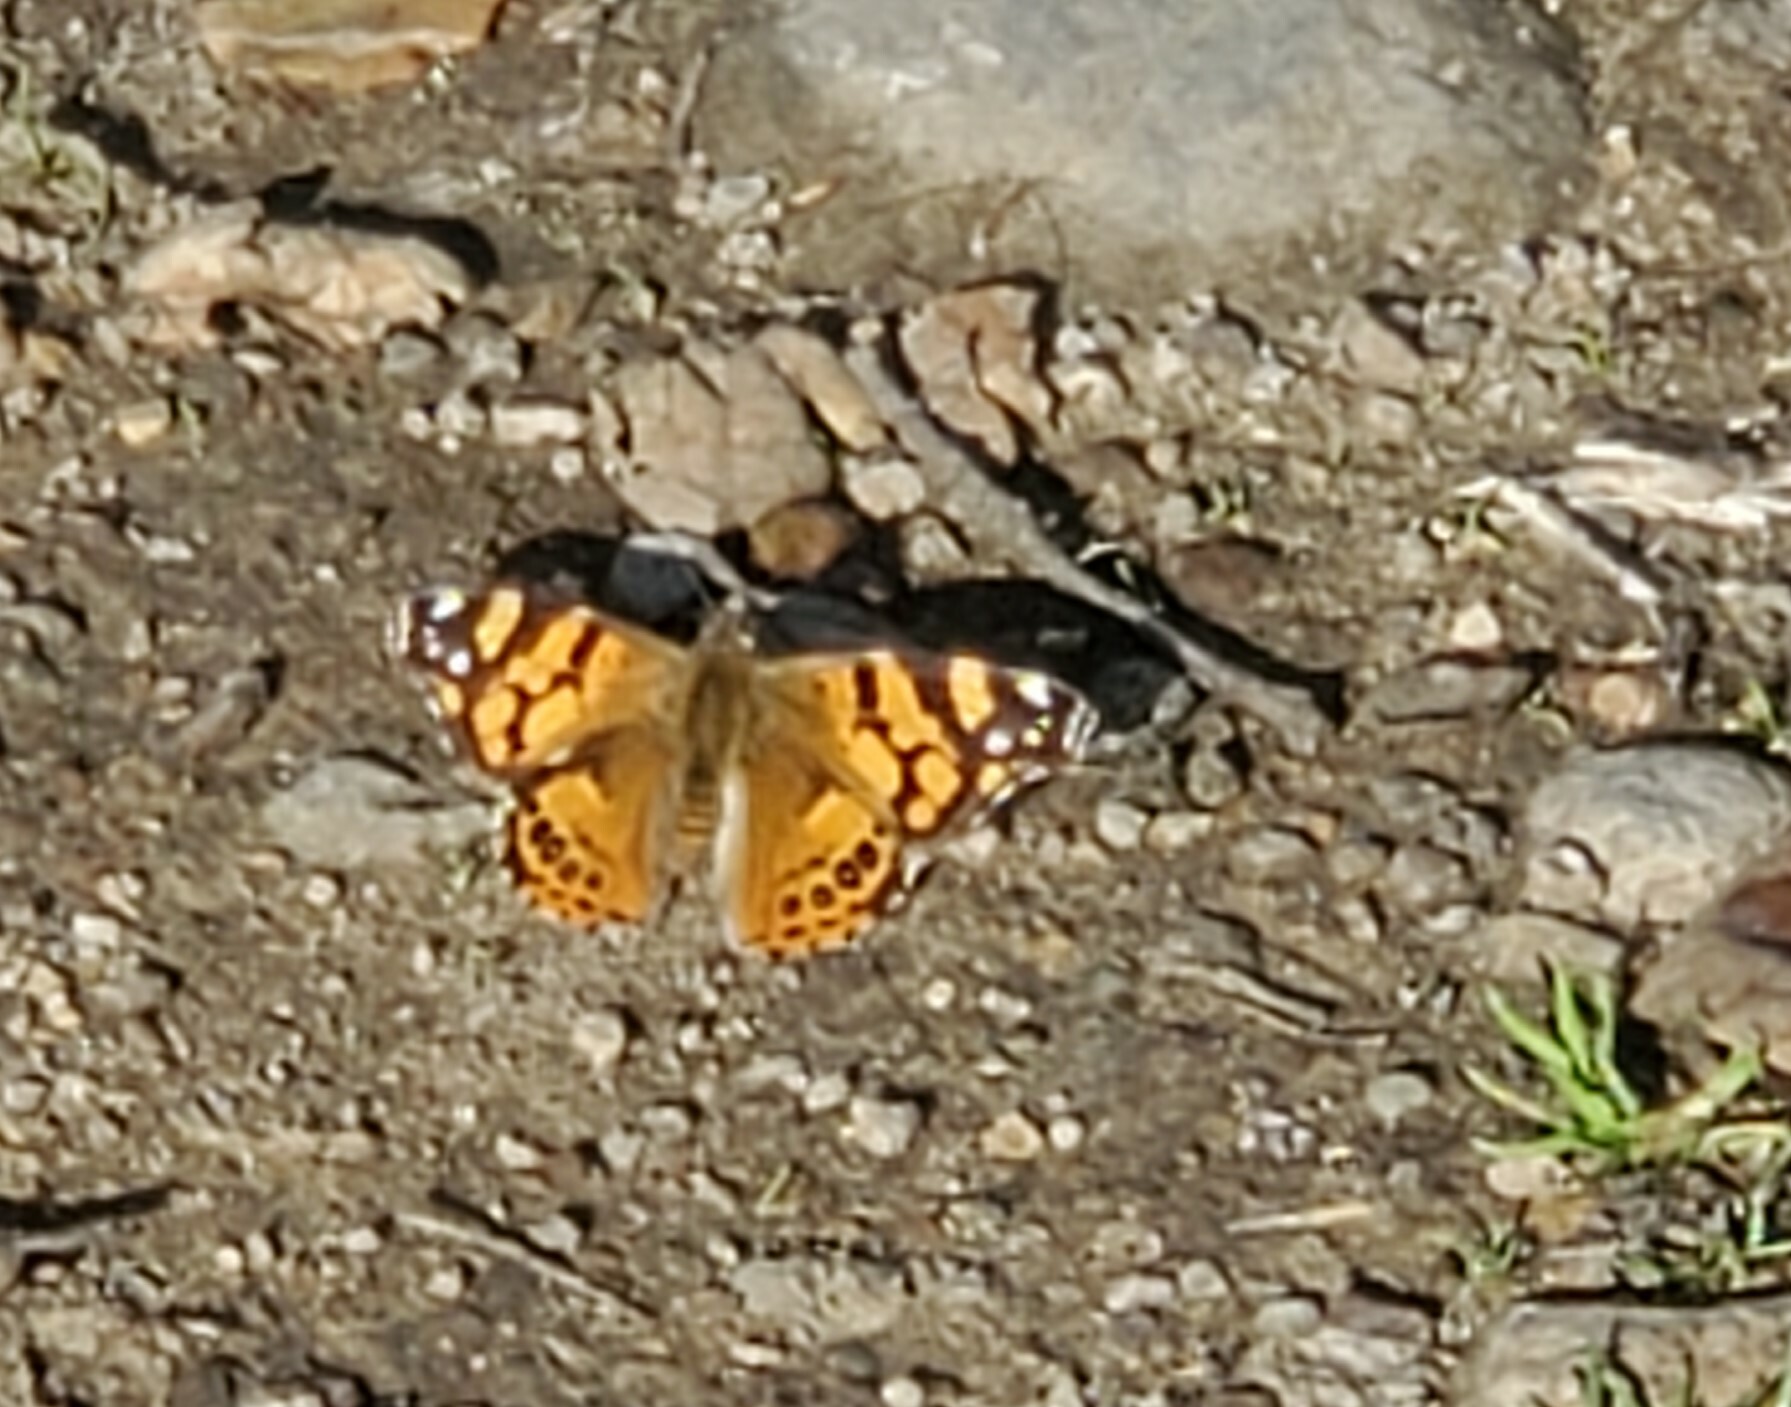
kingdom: Animalia
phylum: Arthropoda
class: Insecta
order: Lepidoptera
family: Nymphalidae
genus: Vanessa
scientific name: Vanessa annabella
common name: West coast lady
